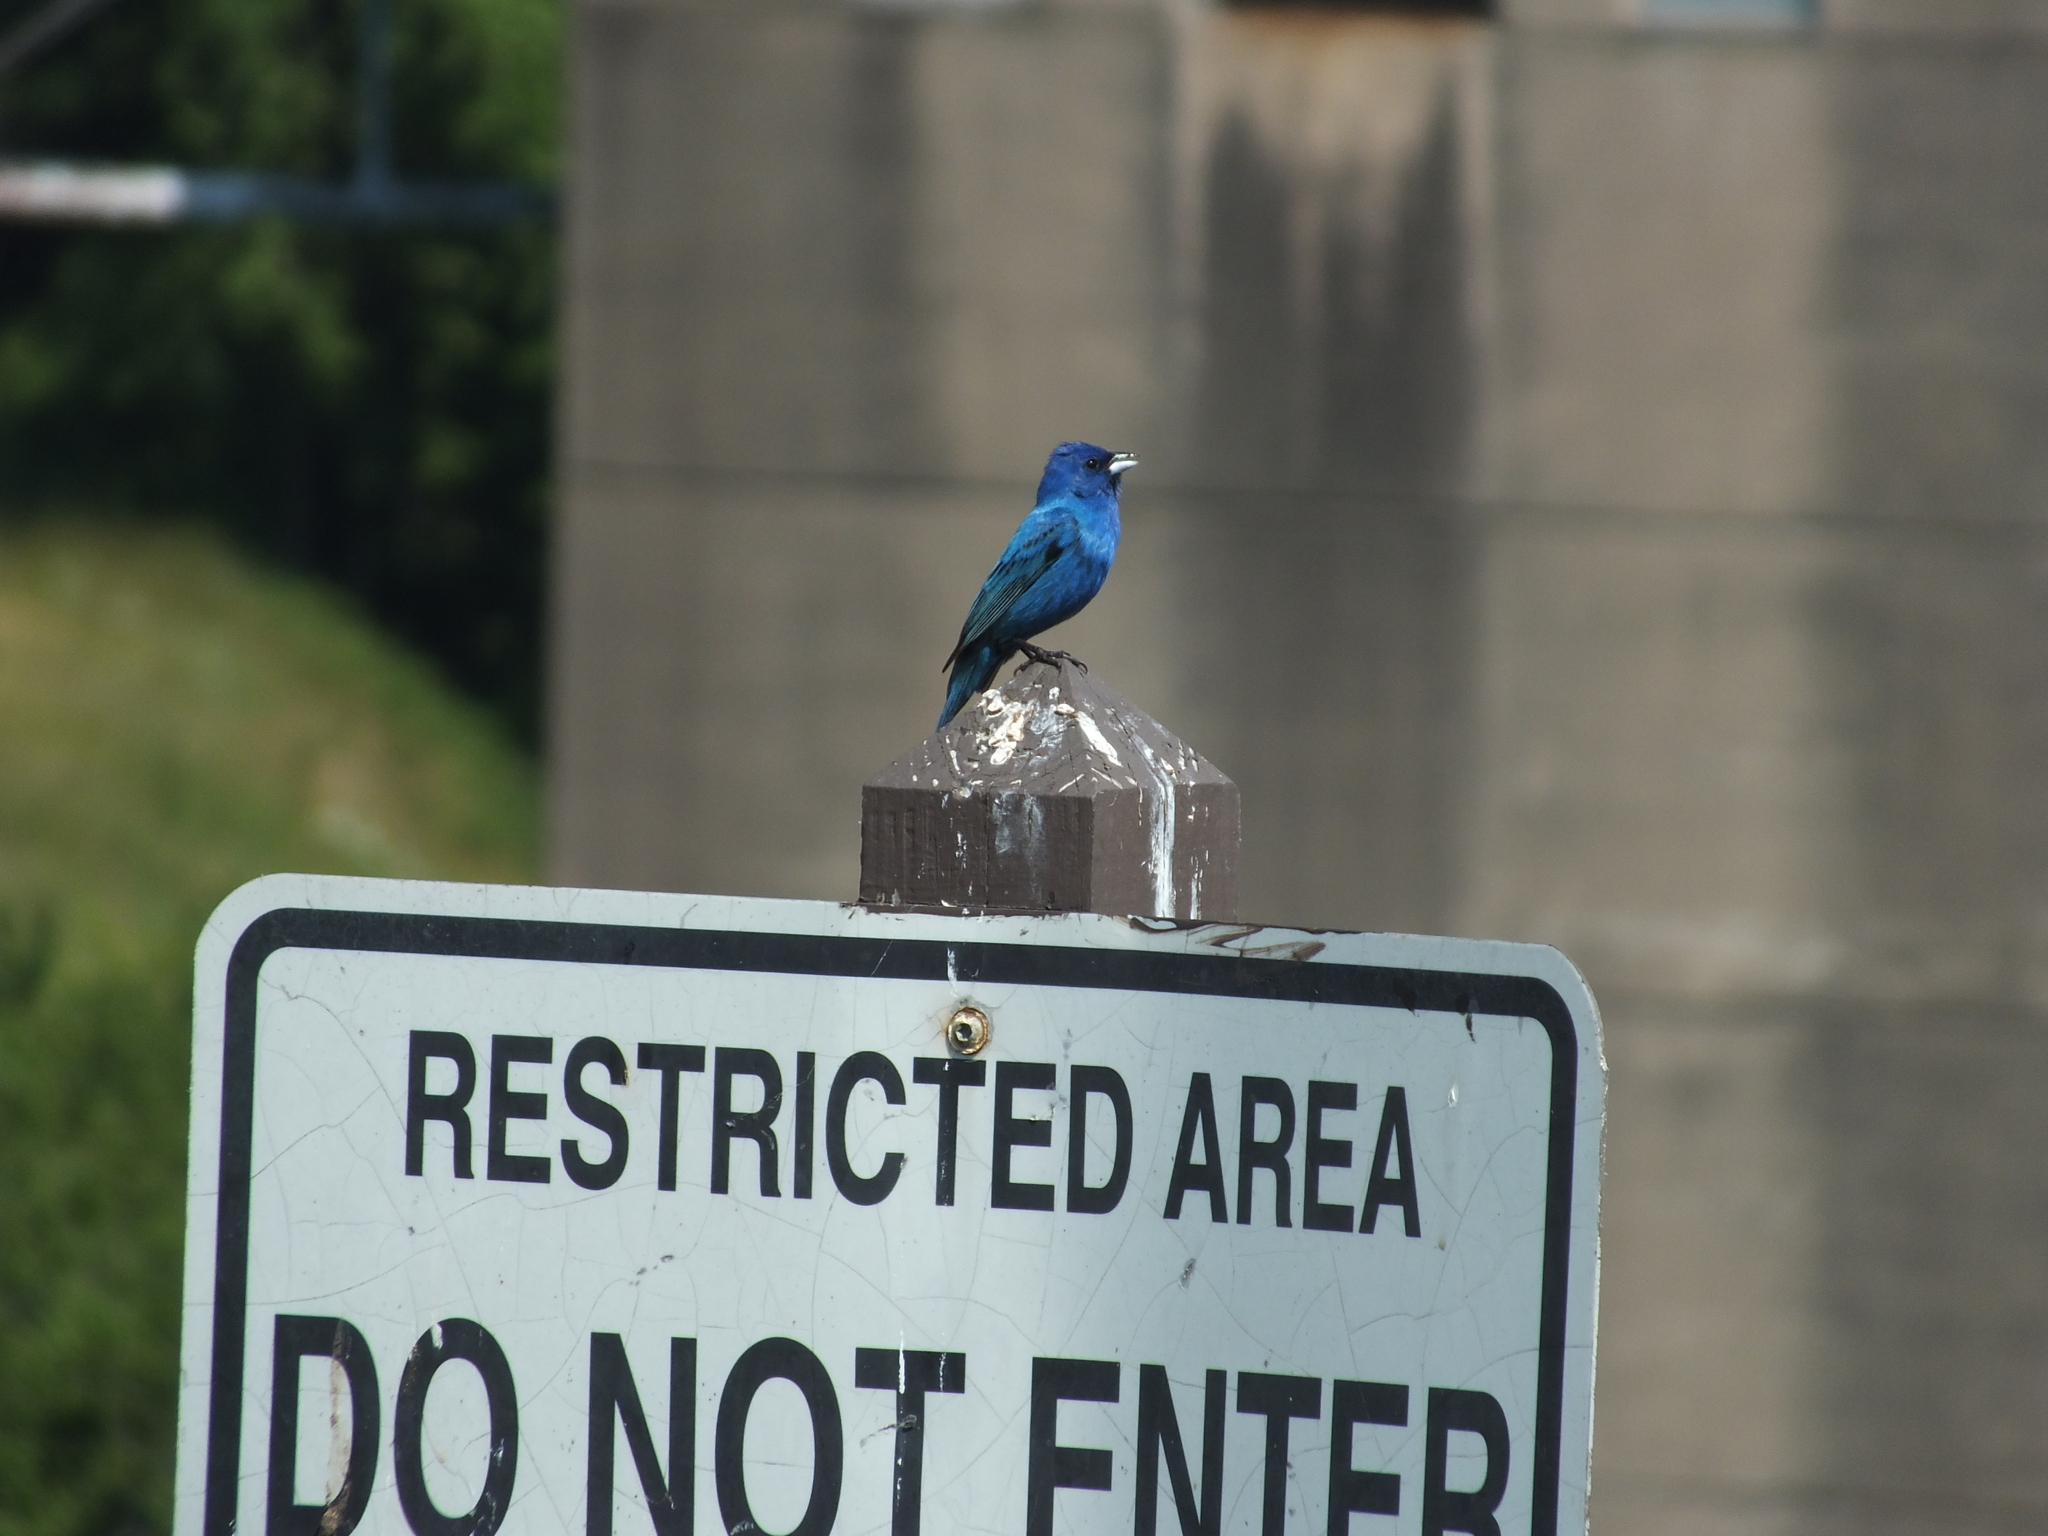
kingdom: Animalia
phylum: Chordata
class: Aves
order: Passeriformes
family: Cardinalidae
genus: Passerina
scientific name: Passerina cyanea
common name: Indigo bunting
